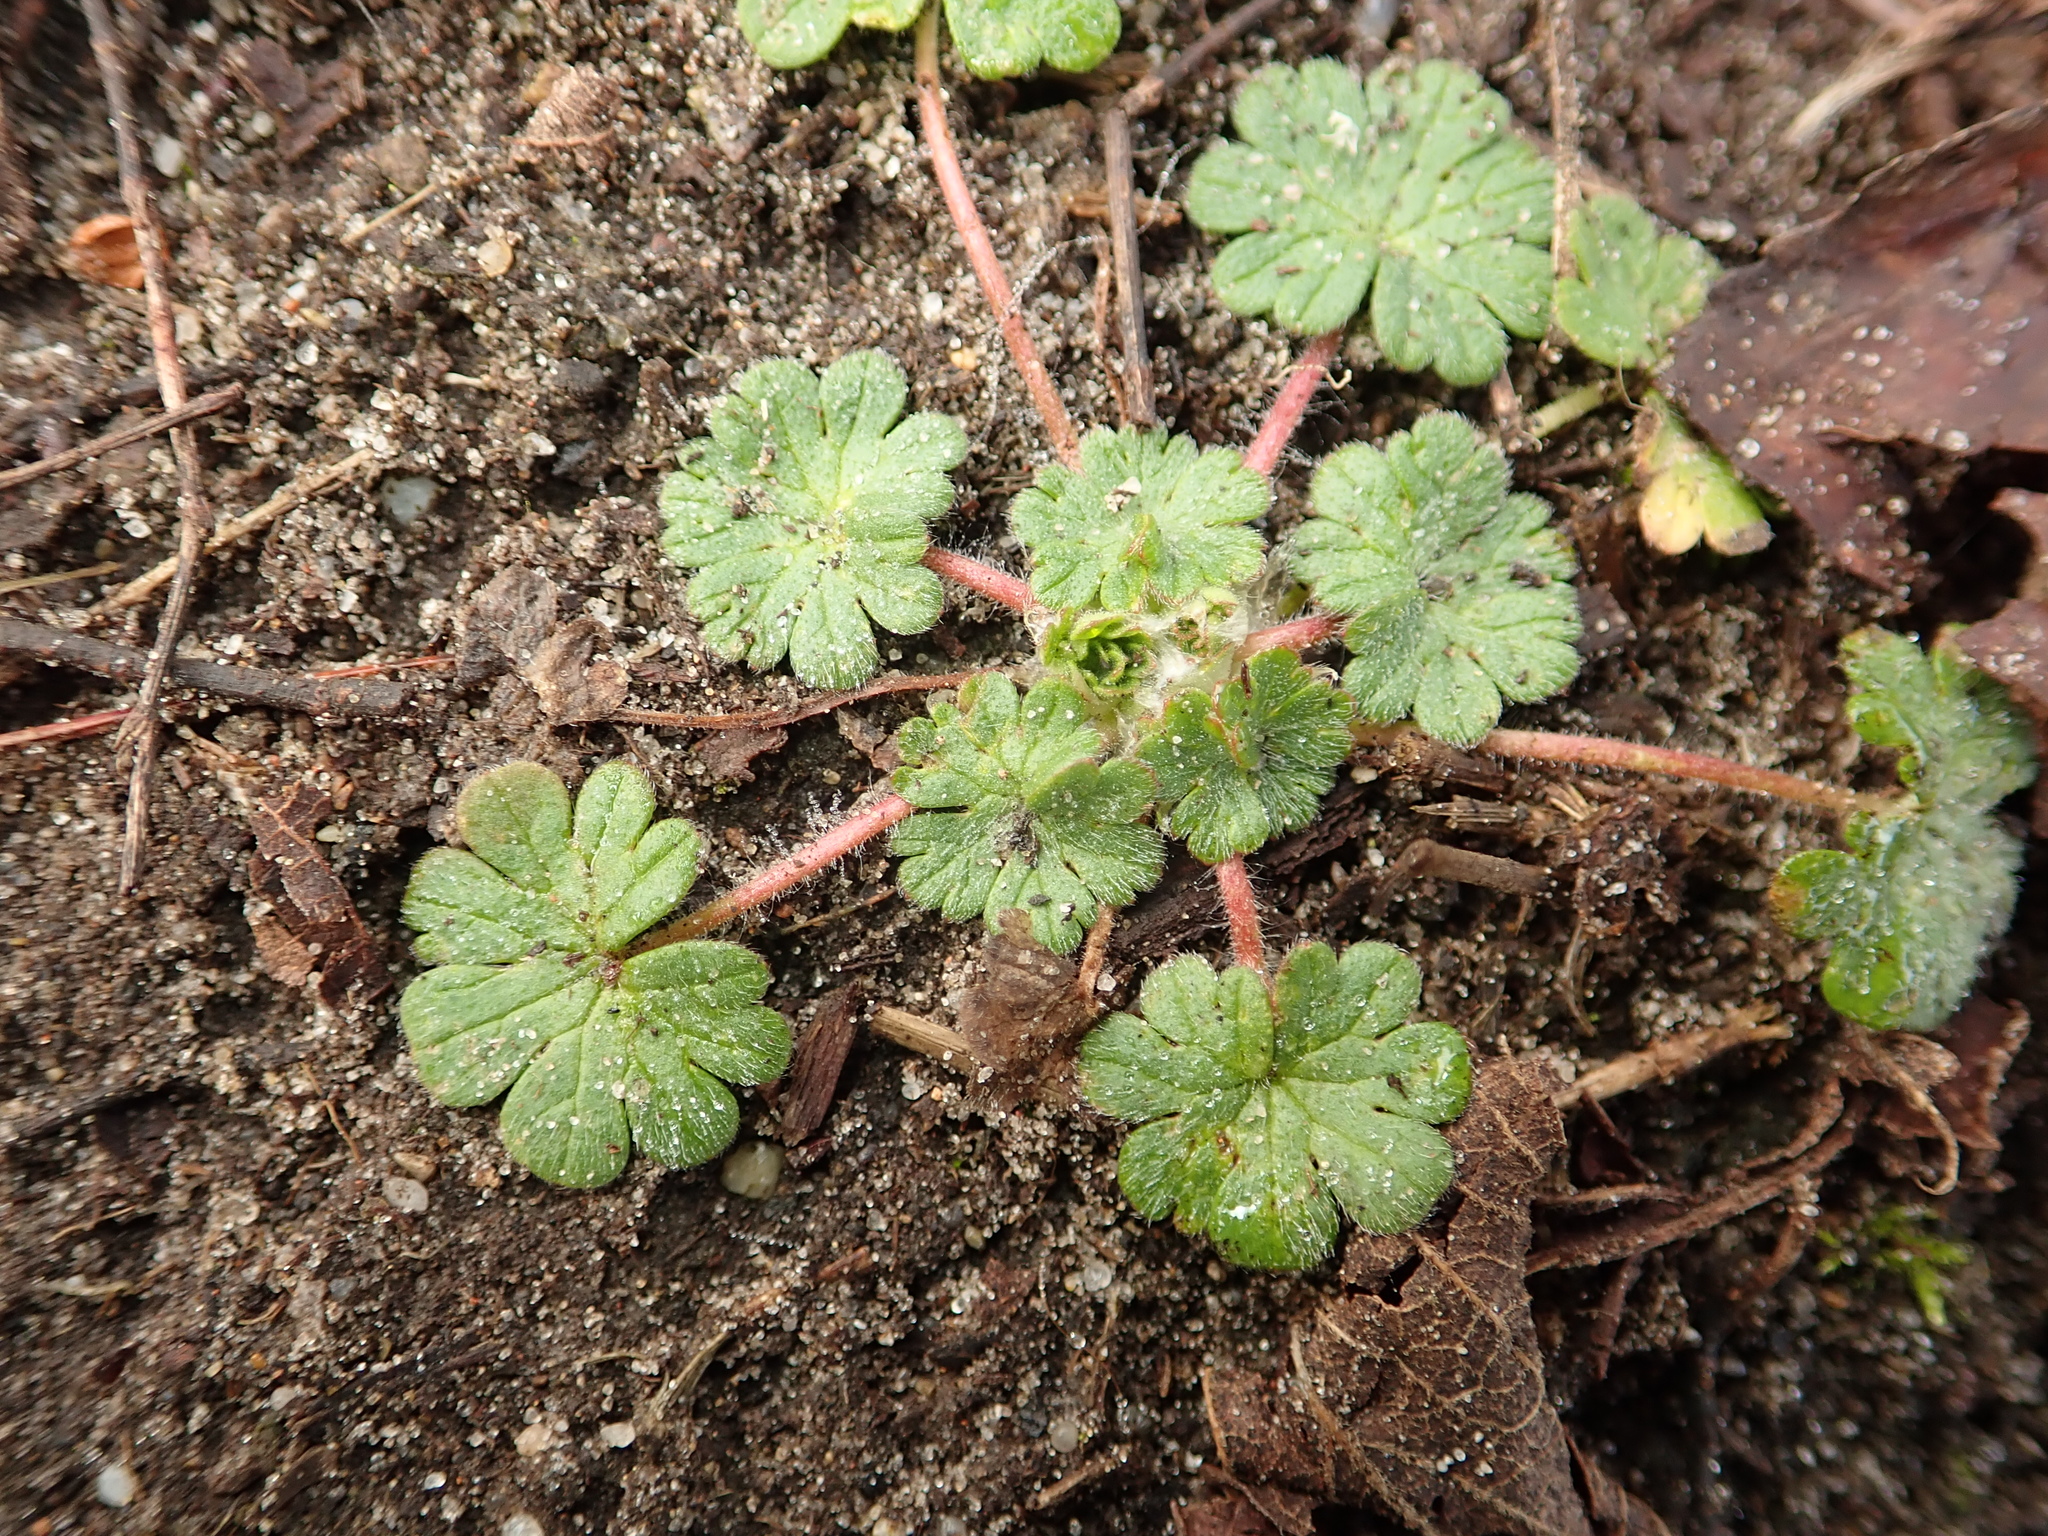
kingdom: Plantae
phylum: Tracheophyta
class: Magnoliopsida
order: Geraniales
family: Geraniaceae
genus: Geranium
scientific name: Geranium molle
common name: Dove's-foot crane's-bill
